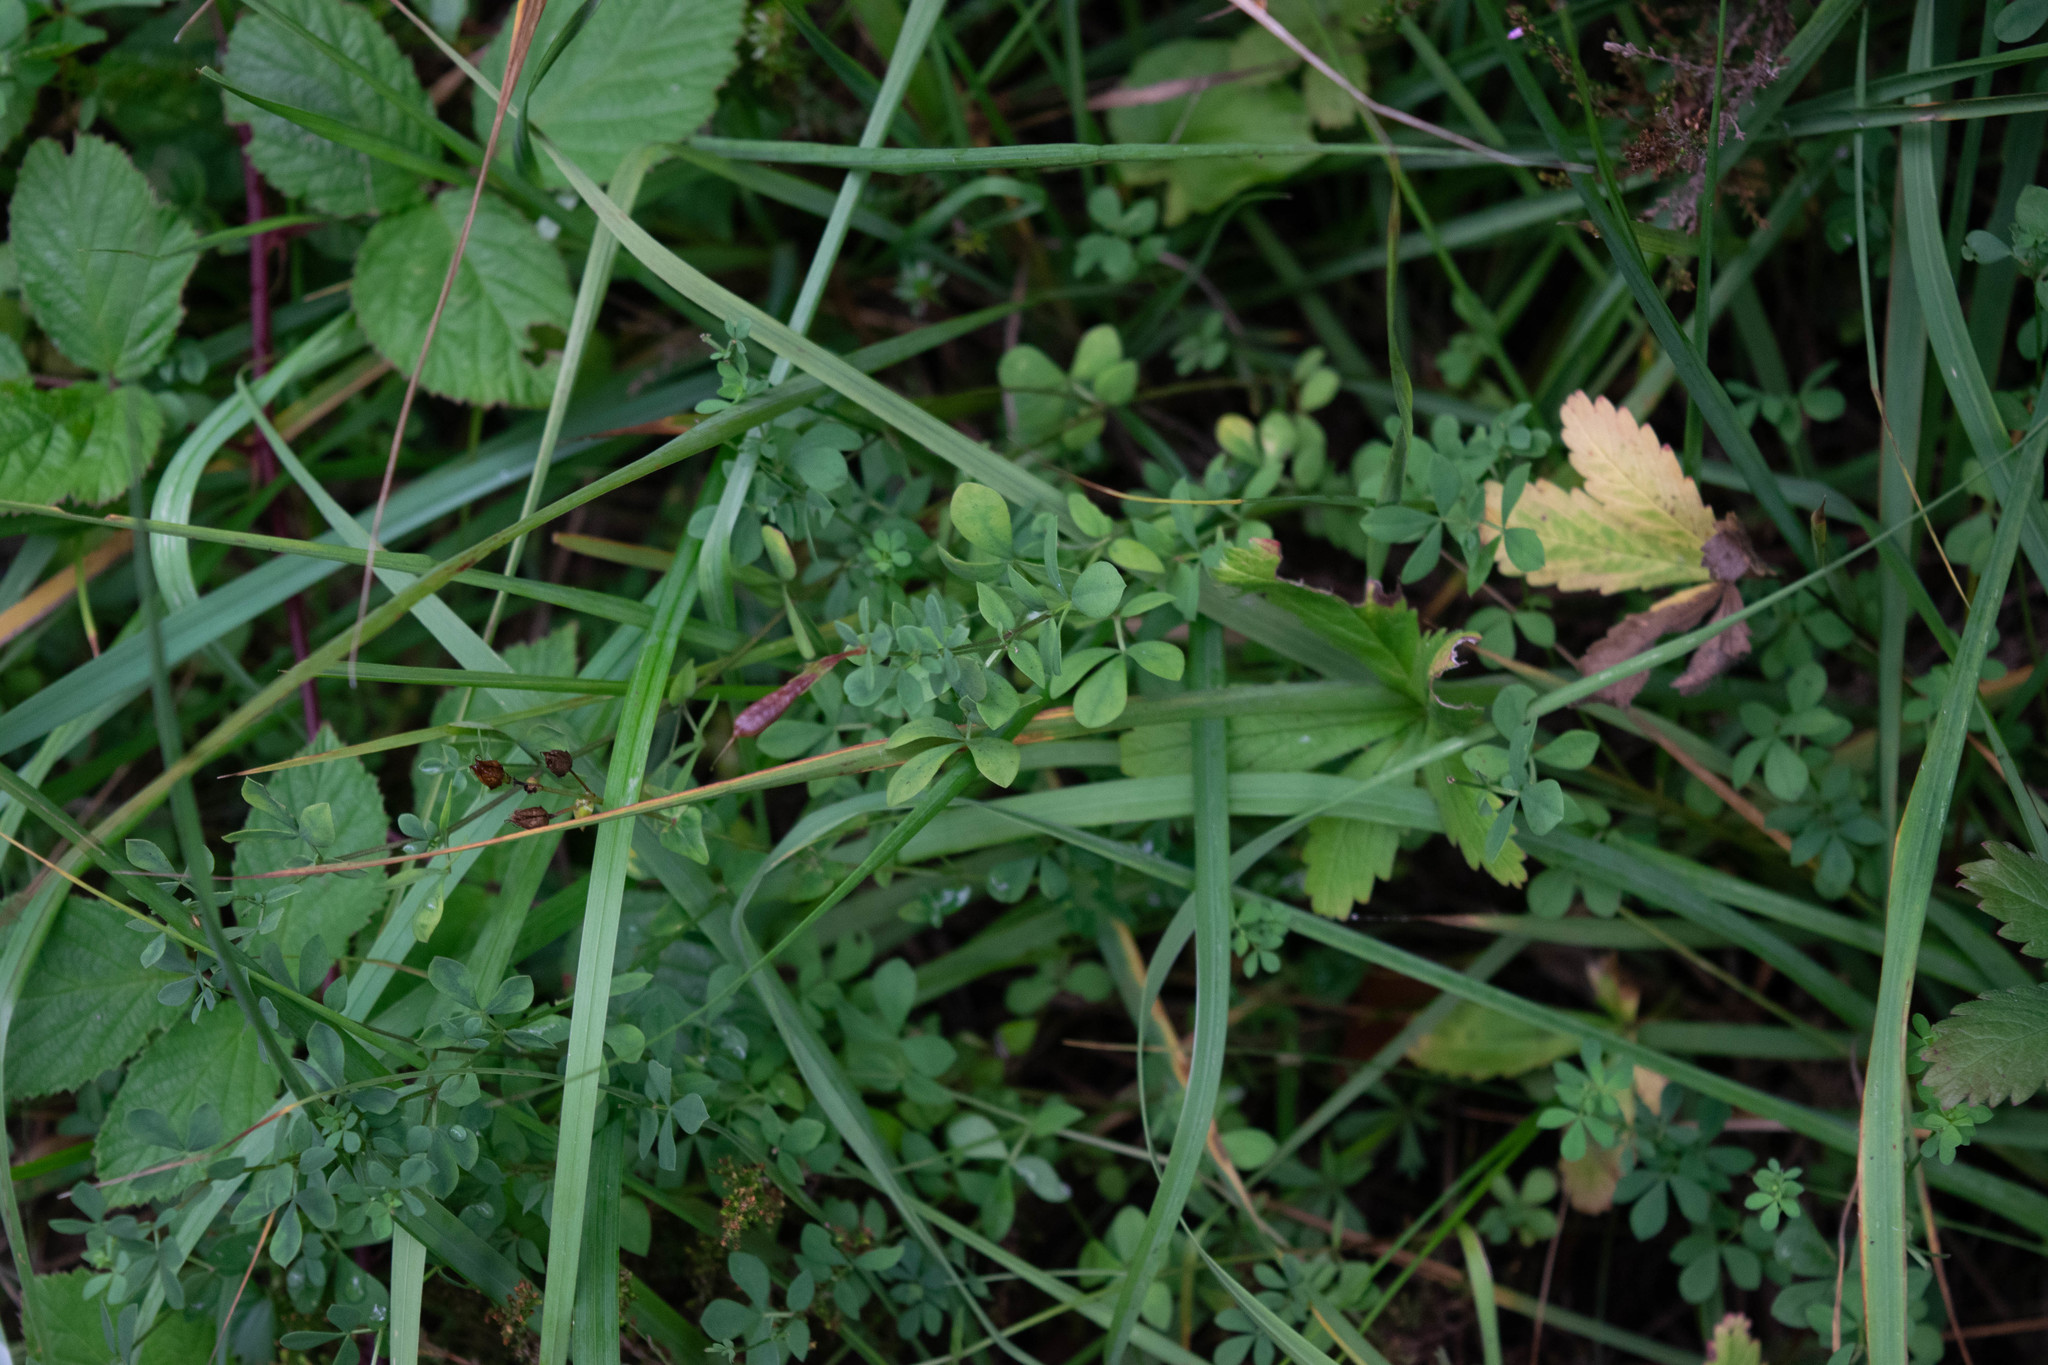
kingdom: Plantae
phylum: Tracheophyta
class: Magnoliopsida
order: Fabales
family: Fabaceae
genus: Lotus
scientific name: Lotus corniculatus
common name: Common bird's-foot-trefoil
